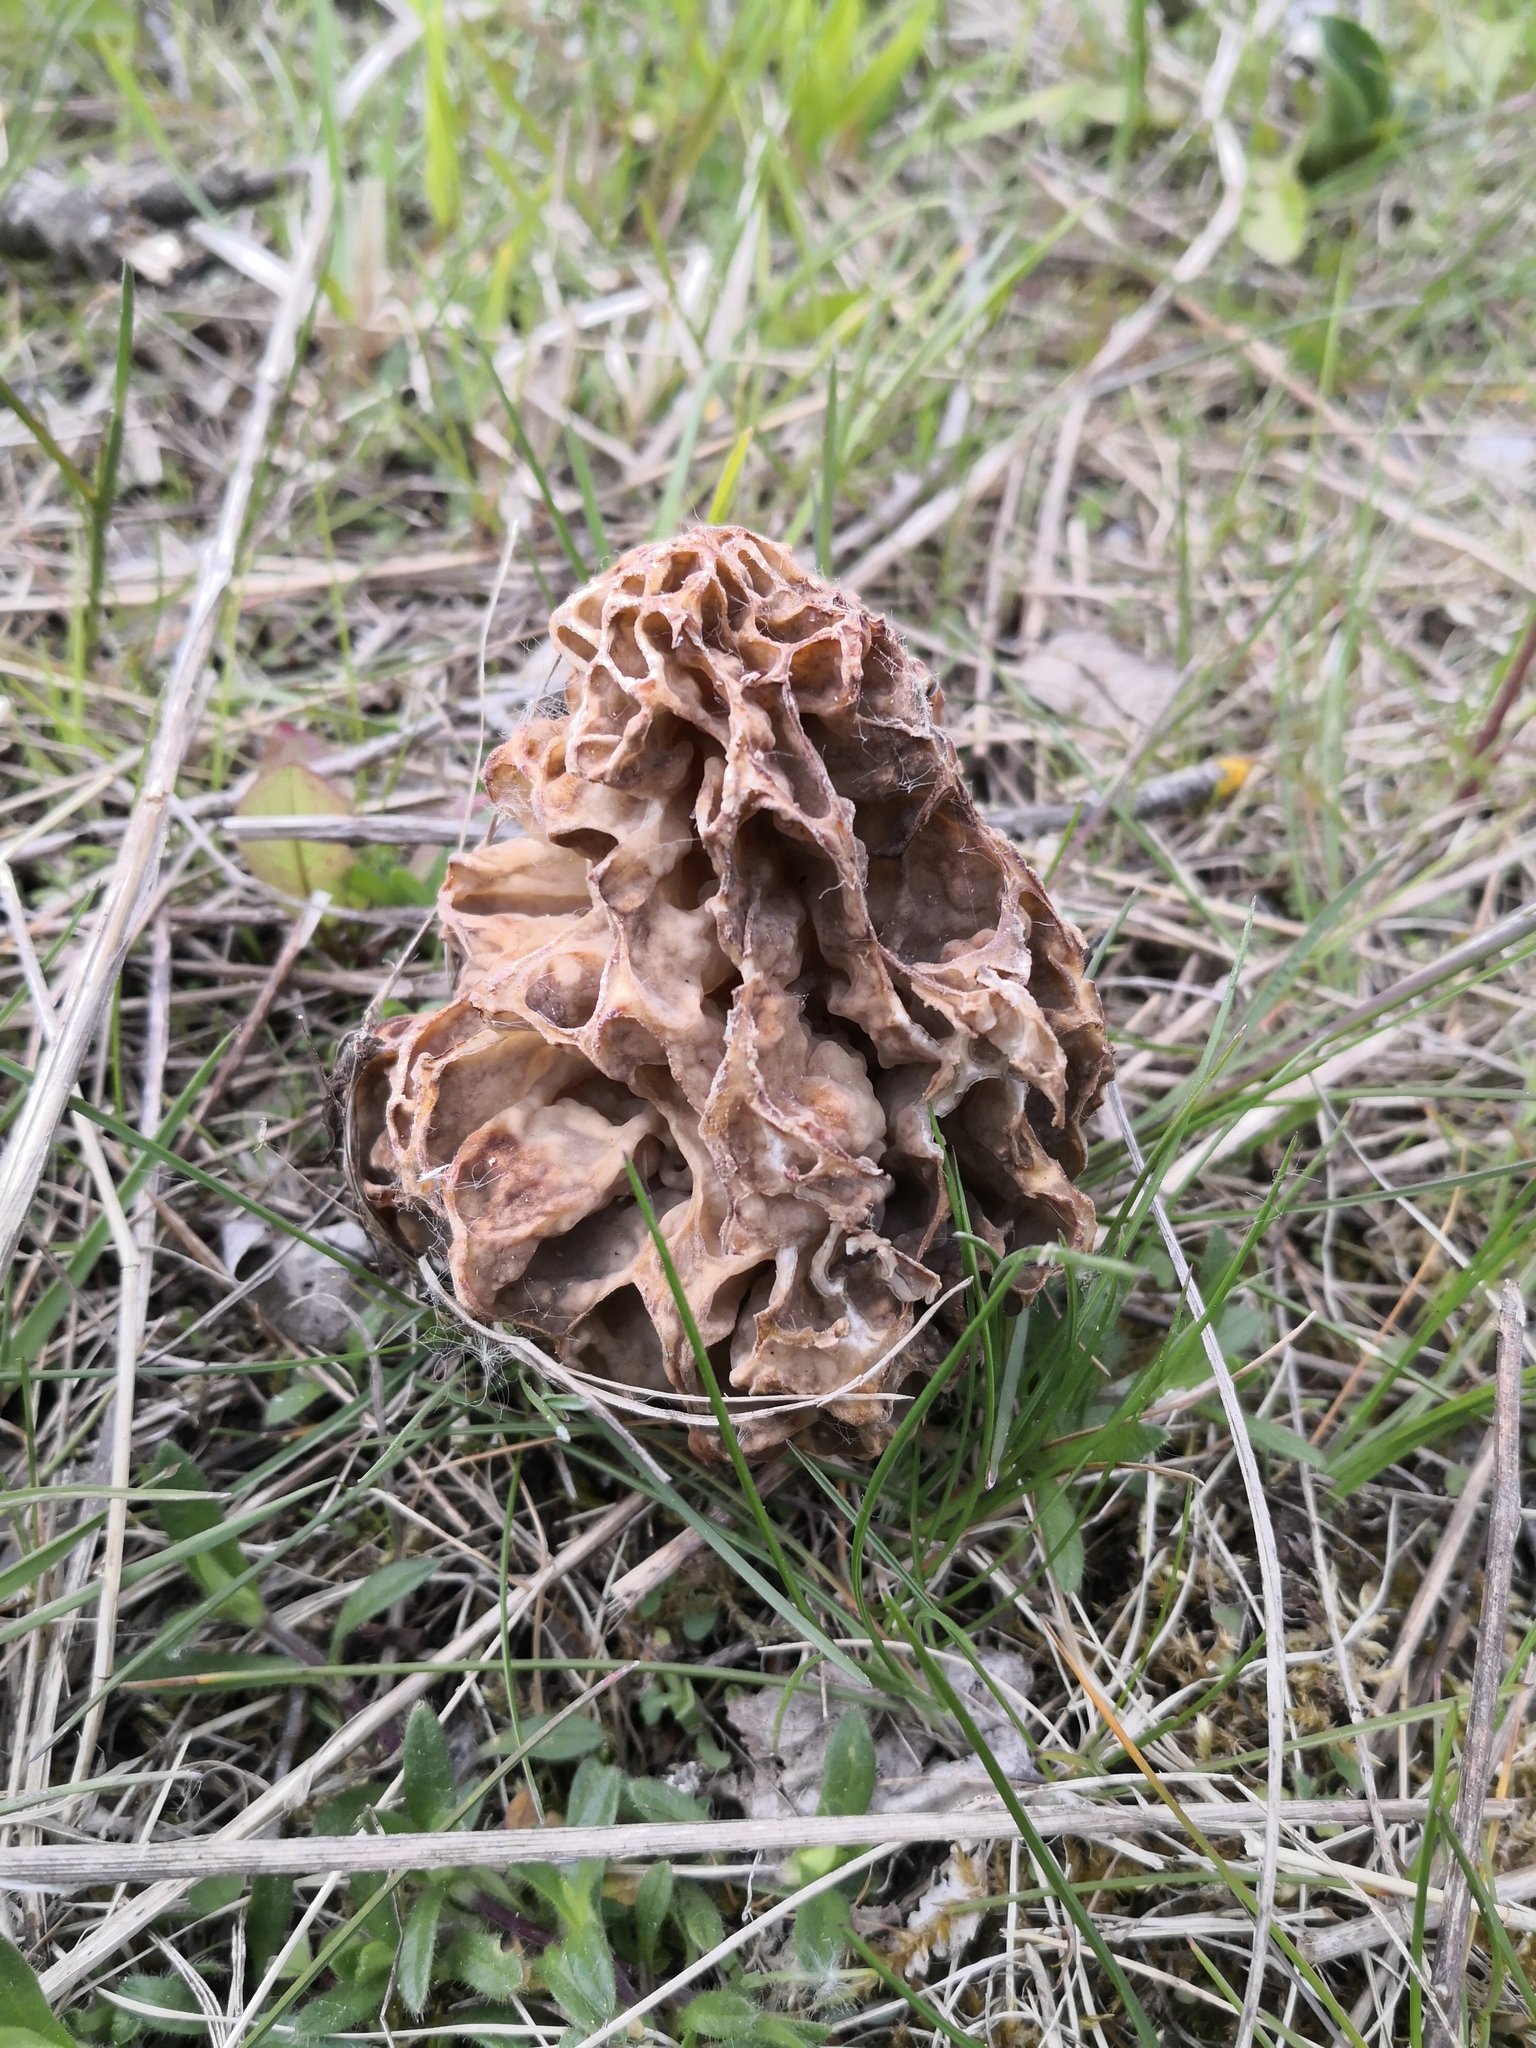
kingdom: Fungi
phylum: Ascomycota
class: Pezizomycetes
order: Pezizales
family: Morchellaceae
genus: Morchella
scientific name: Morchella esculenta
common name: Morel
